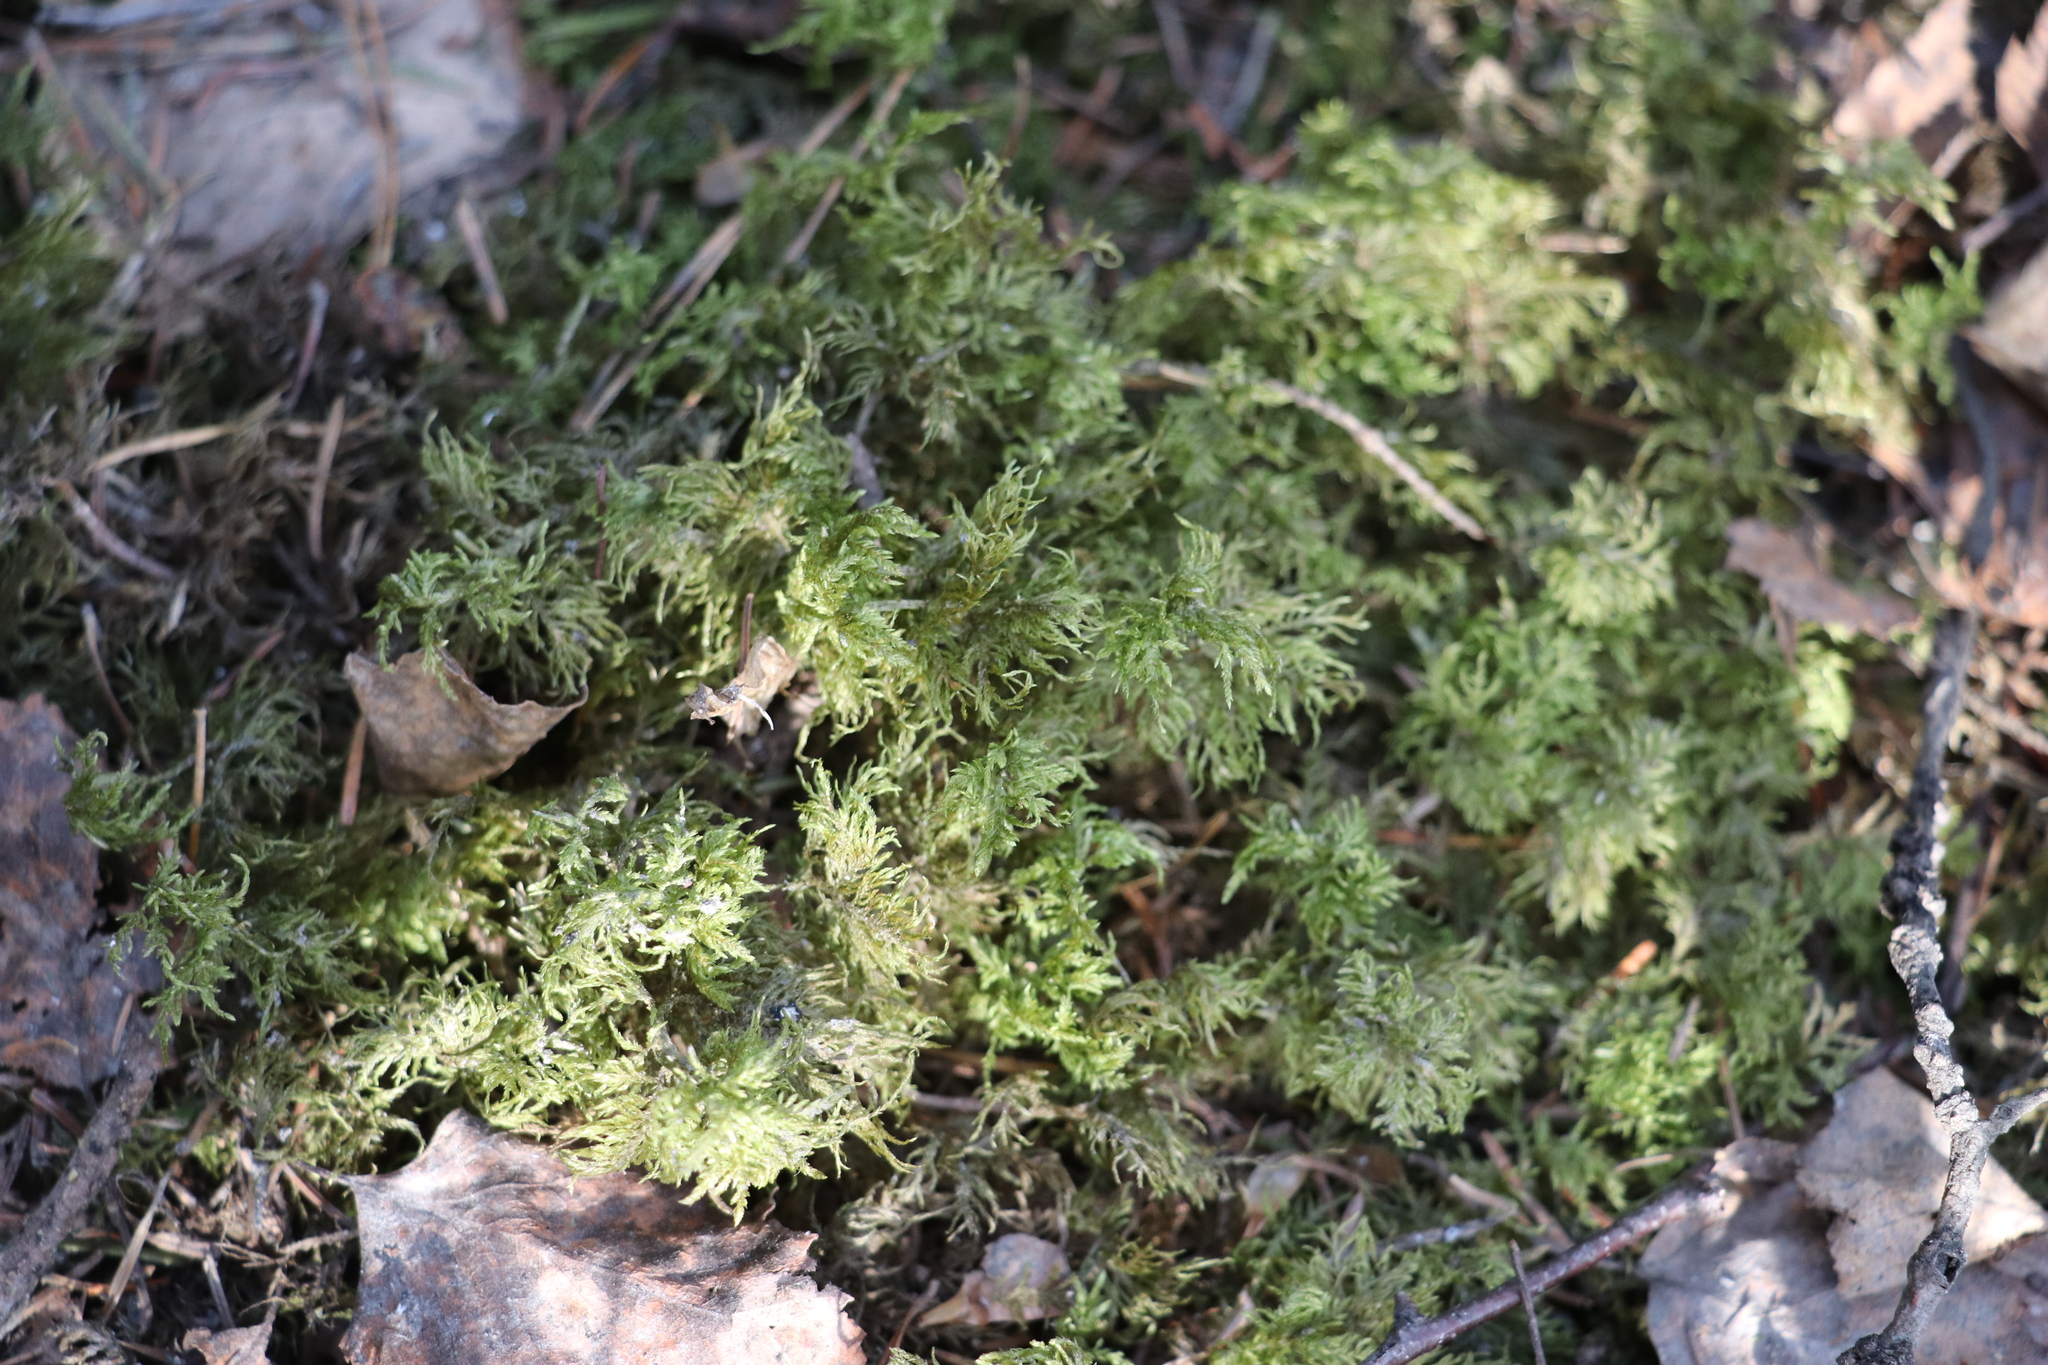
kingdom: Plantae
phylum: Bryophyta
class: Bryopsida
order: Hypnales
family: Hylocomiaceae
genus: Hylocomium
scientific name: Hylocomium splendens
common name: Stairstep moss
